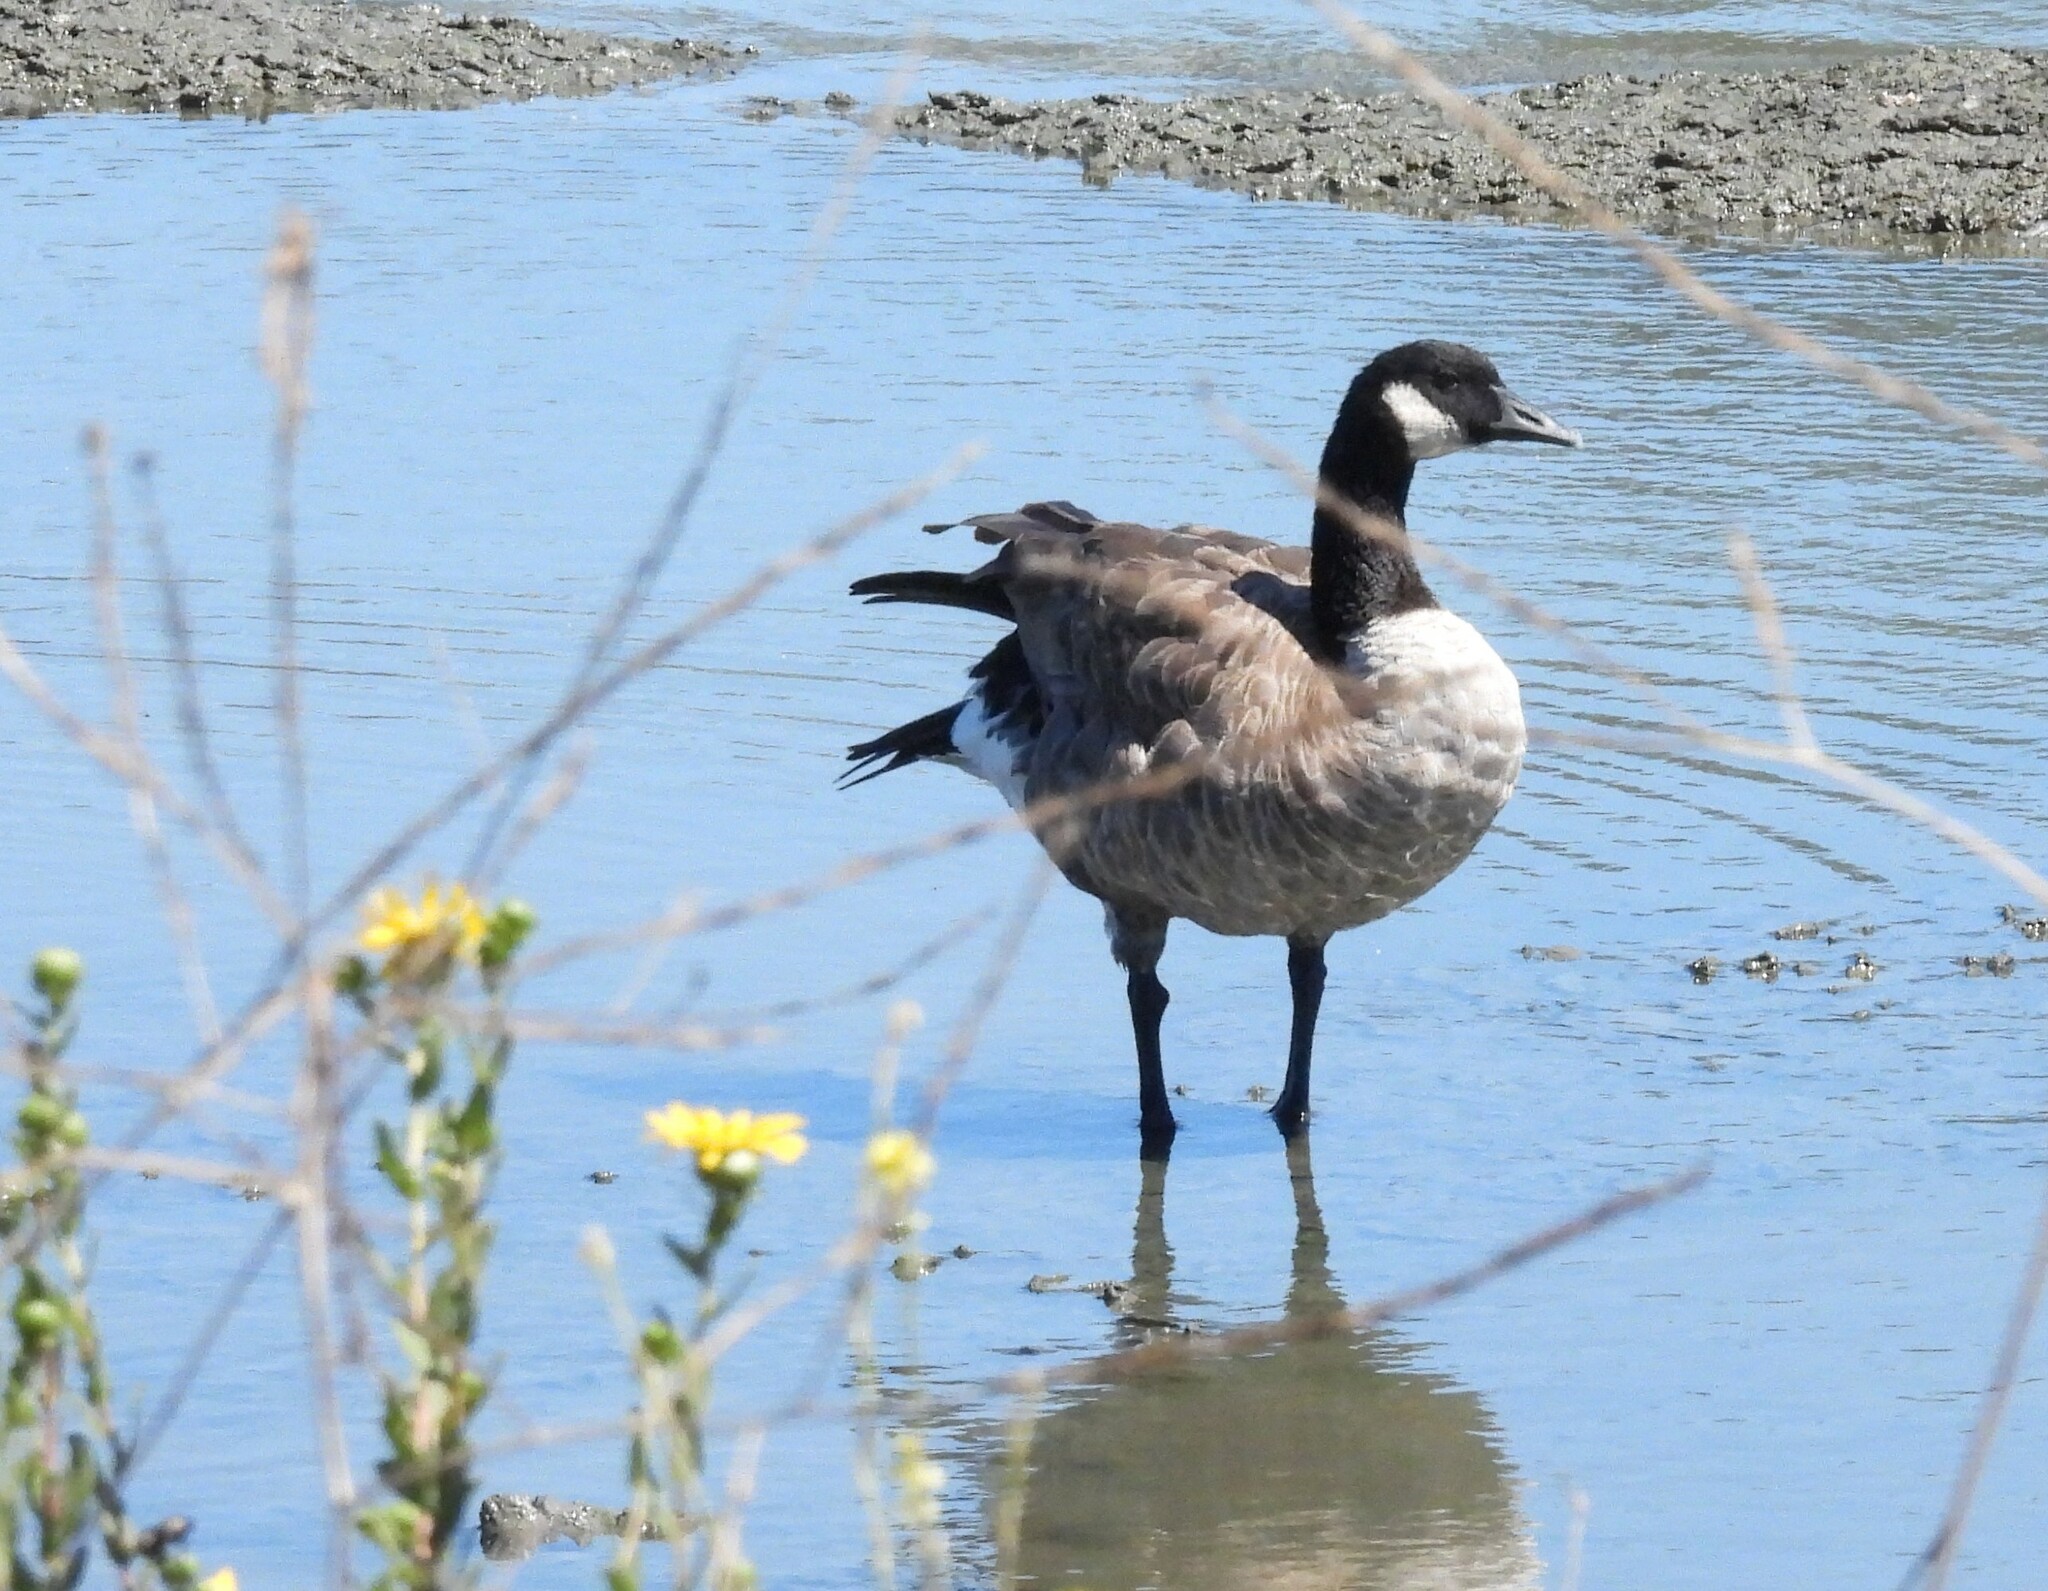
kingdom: Animalia
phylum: Chordata
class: Aves
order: Anseriformes
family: Anatidae
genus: Branta
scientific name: Branta canadensis
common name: Canada goose
